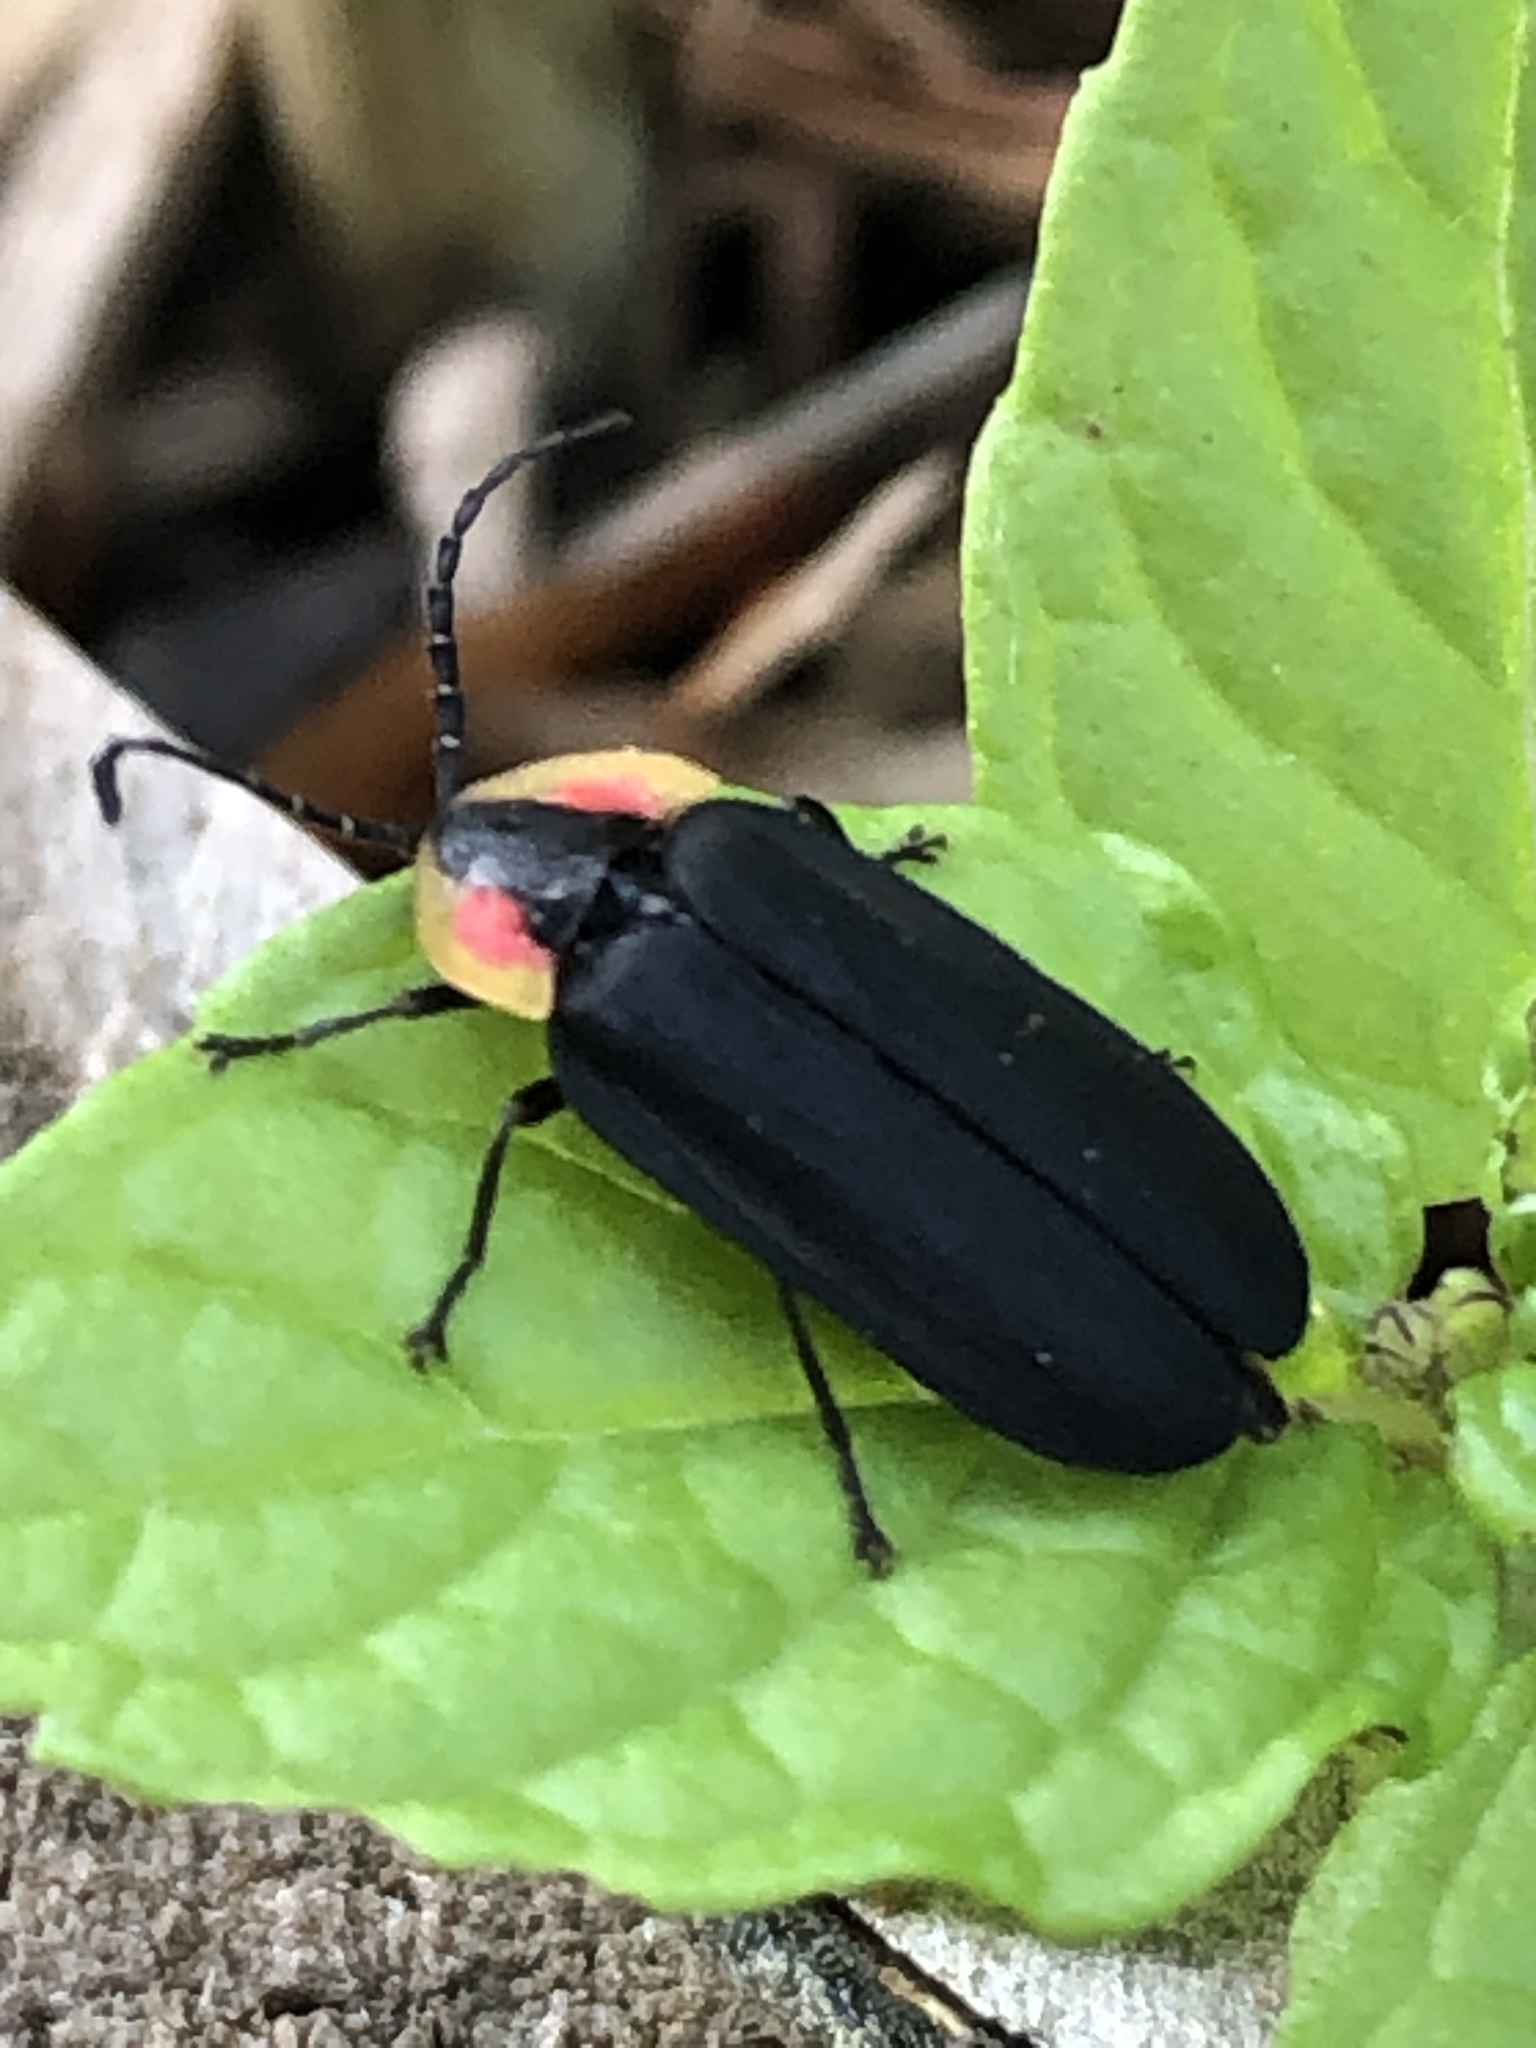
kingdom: Animalia
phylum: Arthropoda
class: Insecta
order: Coleoptera
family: Lampyridae
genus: Lucidota
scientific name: Lucidota atra
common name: Black firefly
